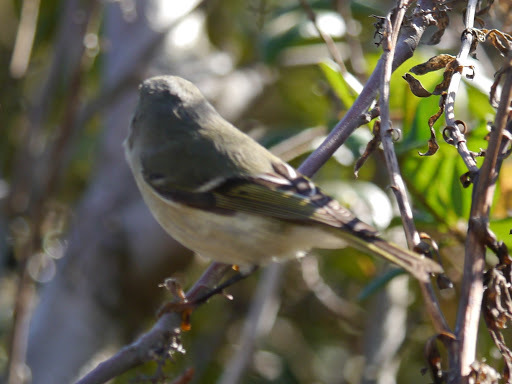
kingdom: Animalia
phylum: Chordata
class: Aves
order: Passeriformes
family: Regulidae
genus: Regulus
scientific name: Regulus calendula
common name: Ruby-crowned kinglet
